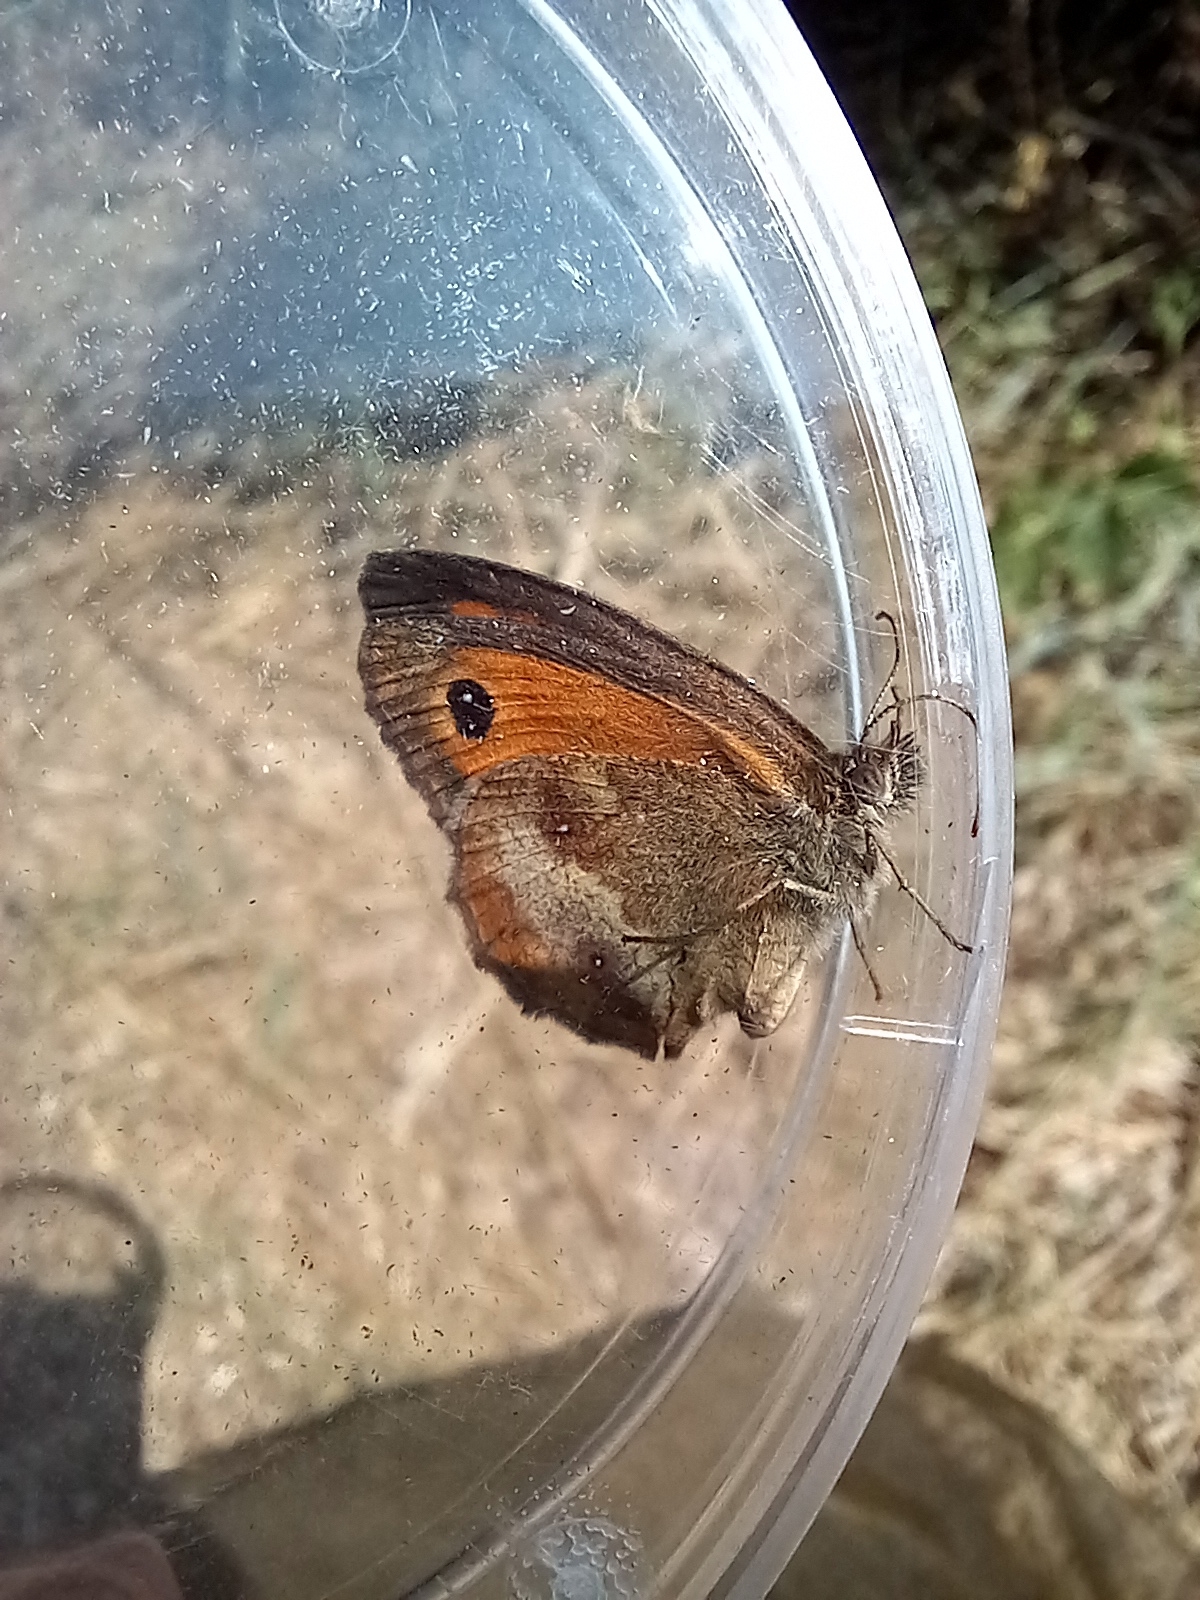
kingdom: Animalia
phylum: Arthropoda
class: Insecta
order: Lepidoptera
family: Nymphalidae
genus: Pyronia
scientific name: Pyronia tithonus
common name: Gatekeeper
